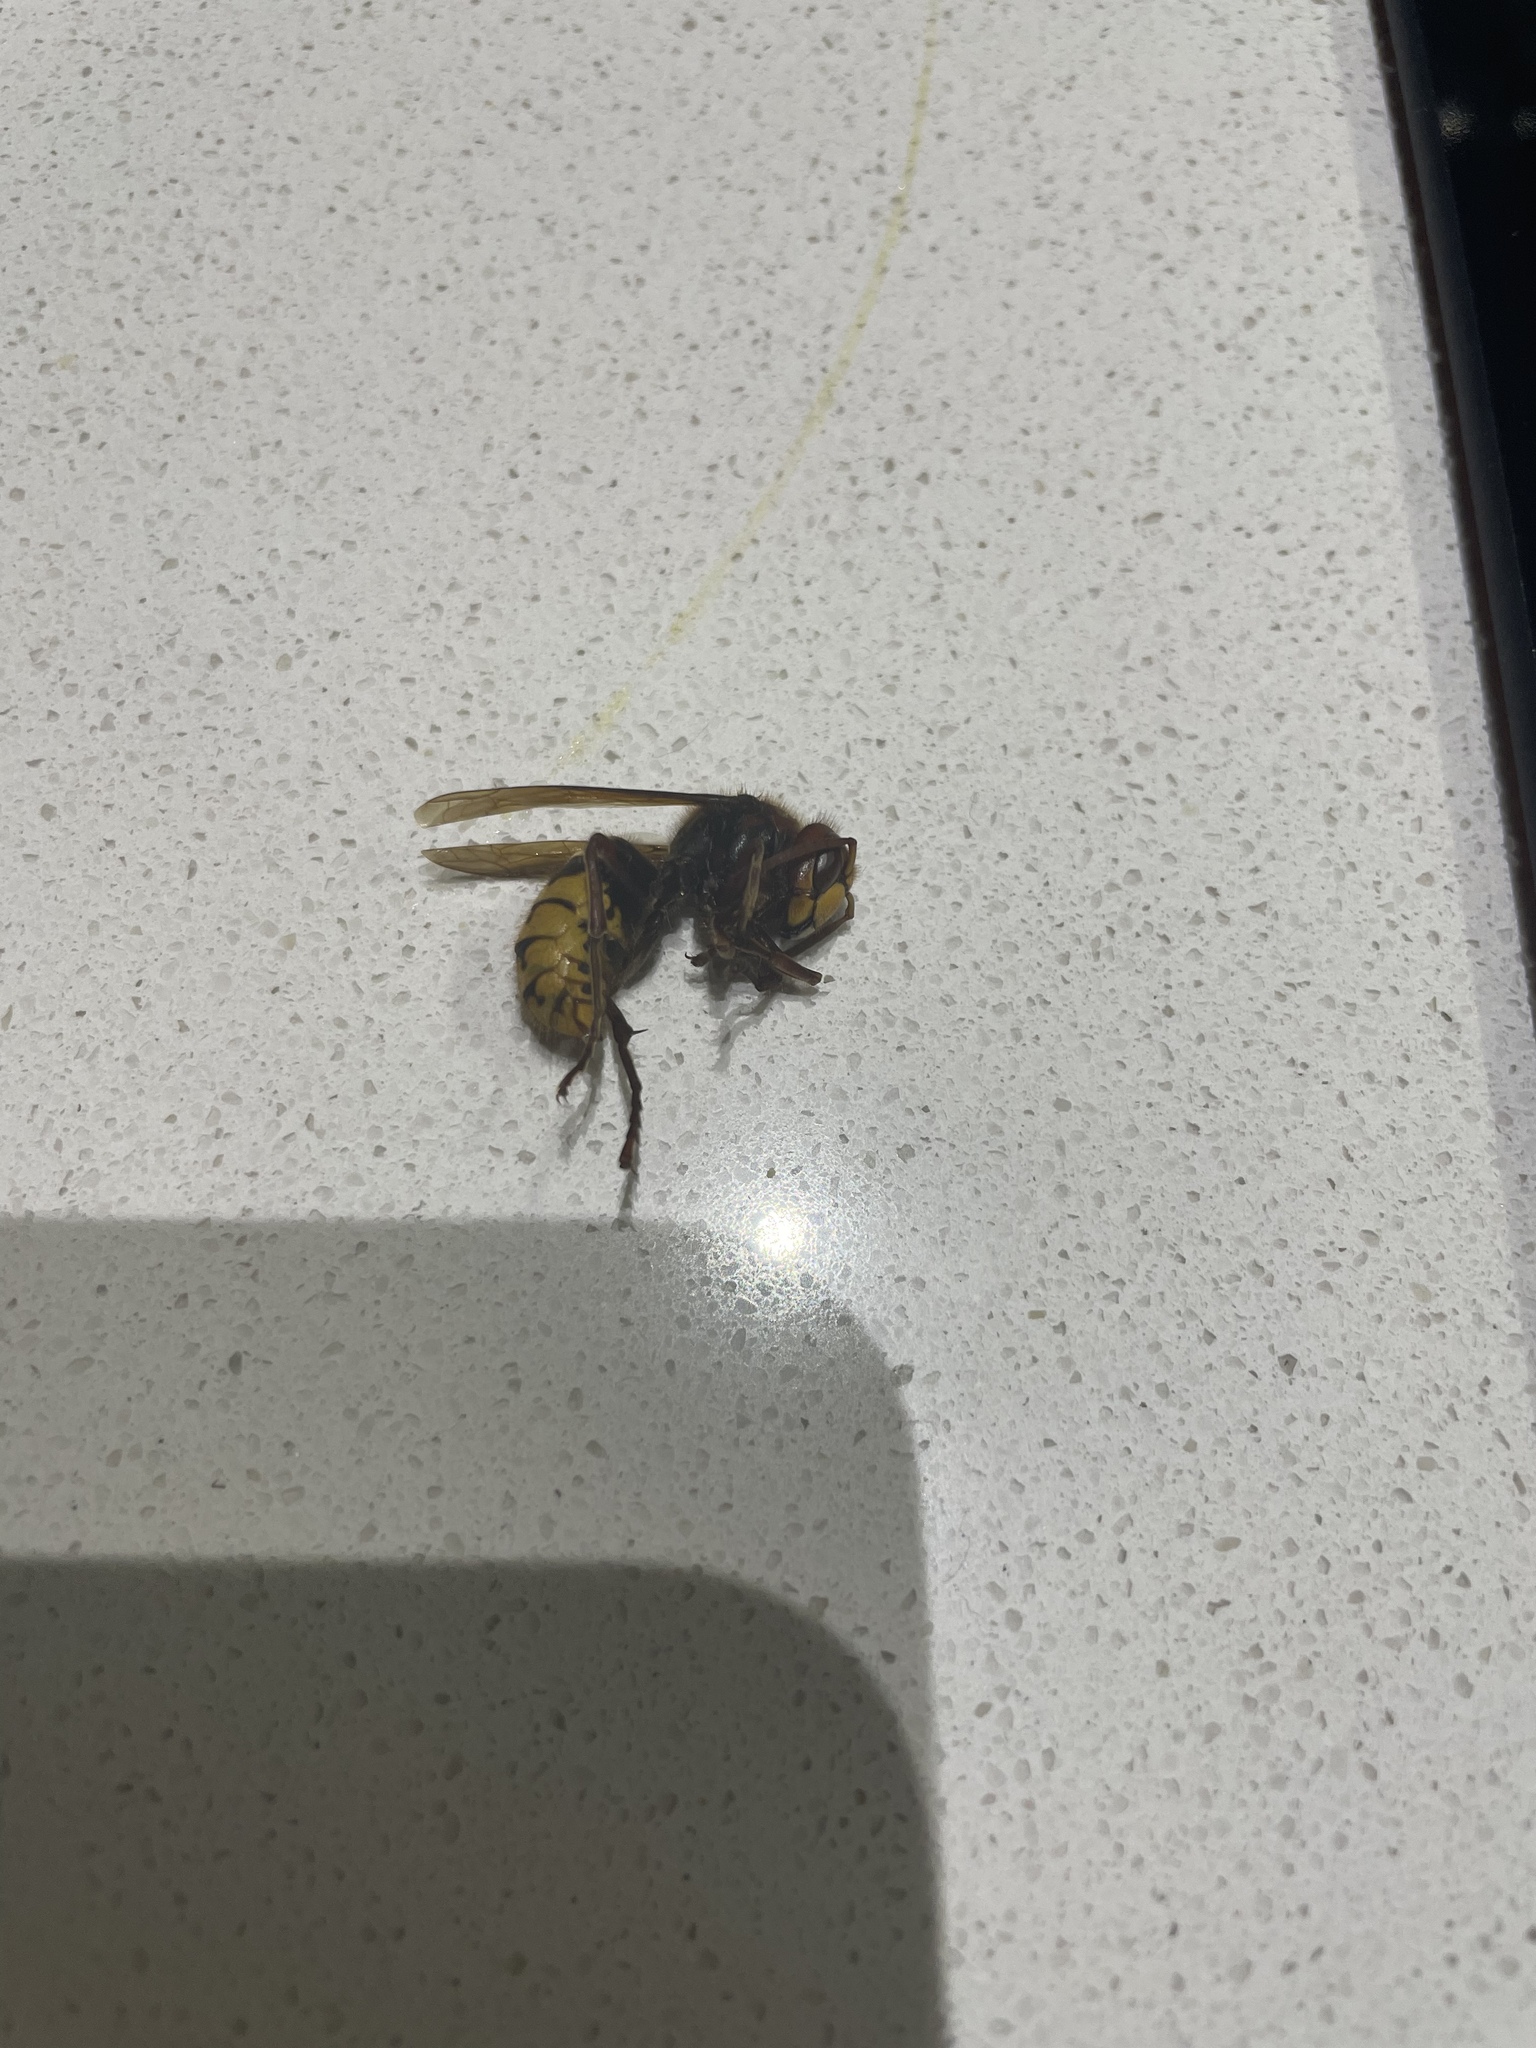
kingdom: Animalia
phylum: Arthropoda
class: Insecta
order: Hymenoptera
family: Vespidae
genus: Vespa
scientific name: Vespa crabro
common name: Hornet
